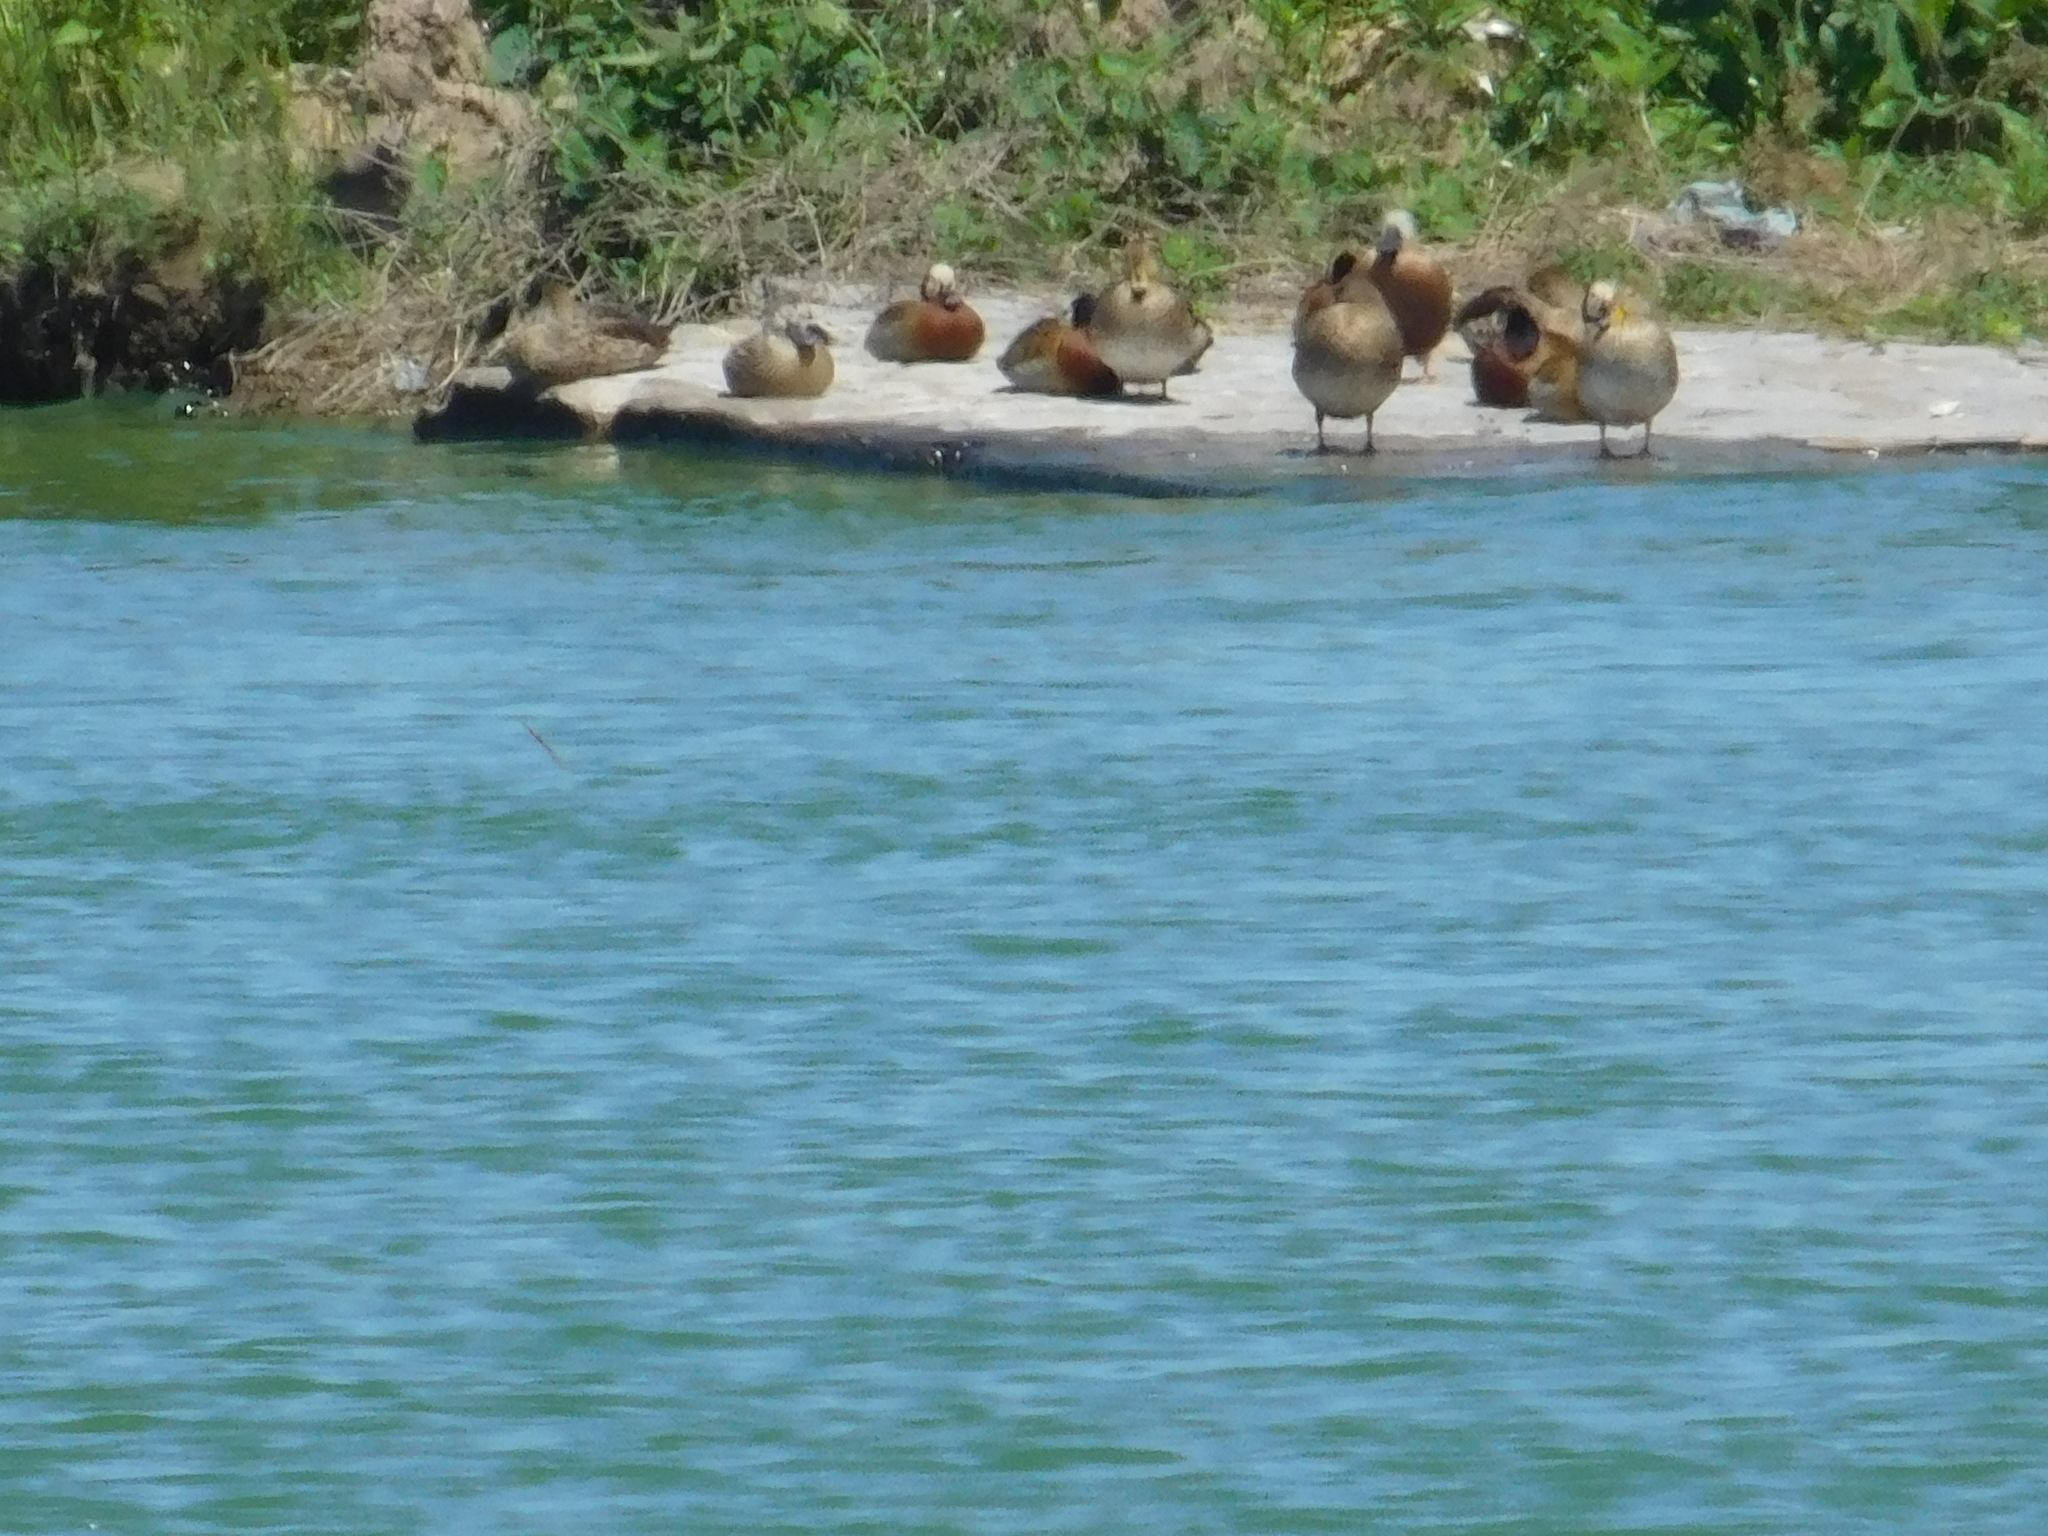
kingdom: Animalia
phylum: Chordata
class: Aves
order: Anseriformes
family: Anatidae
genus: Dendrocygna
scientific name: Dendrocygna viduata
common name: White-faced whistling duck
